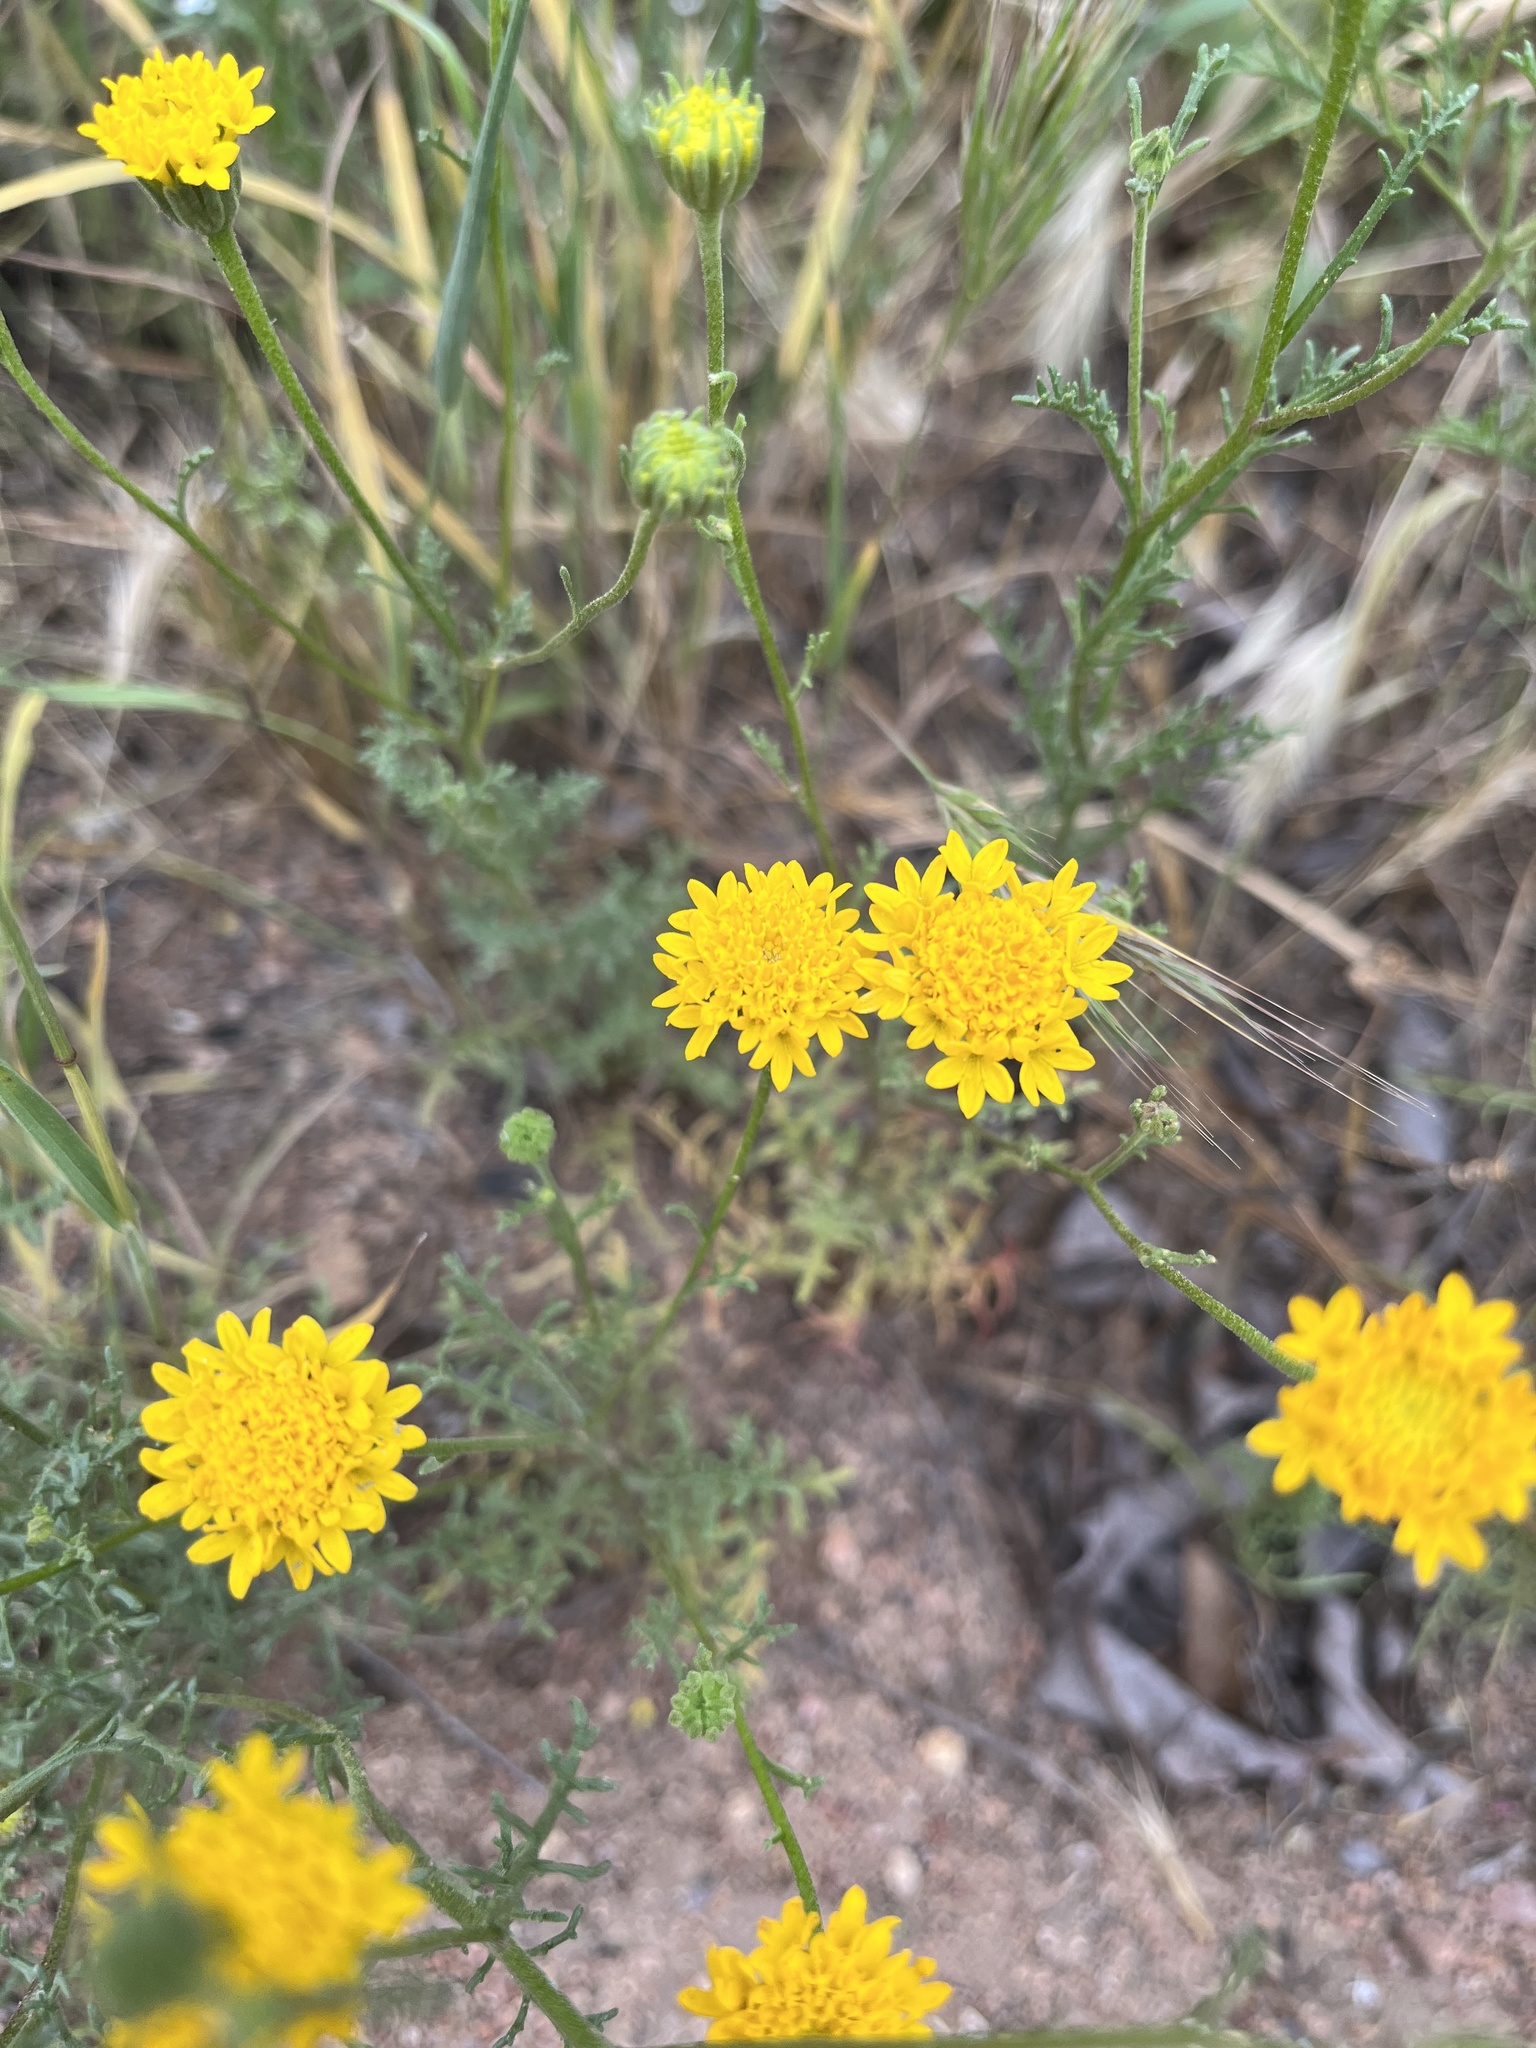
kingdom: Plantae
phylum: Tracheophyta
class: Magnoliopsida
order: Asterales
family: Asteraceae
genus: Chaenactis
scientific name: Chaenactis glabriuscula
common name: Yellow pincushion
